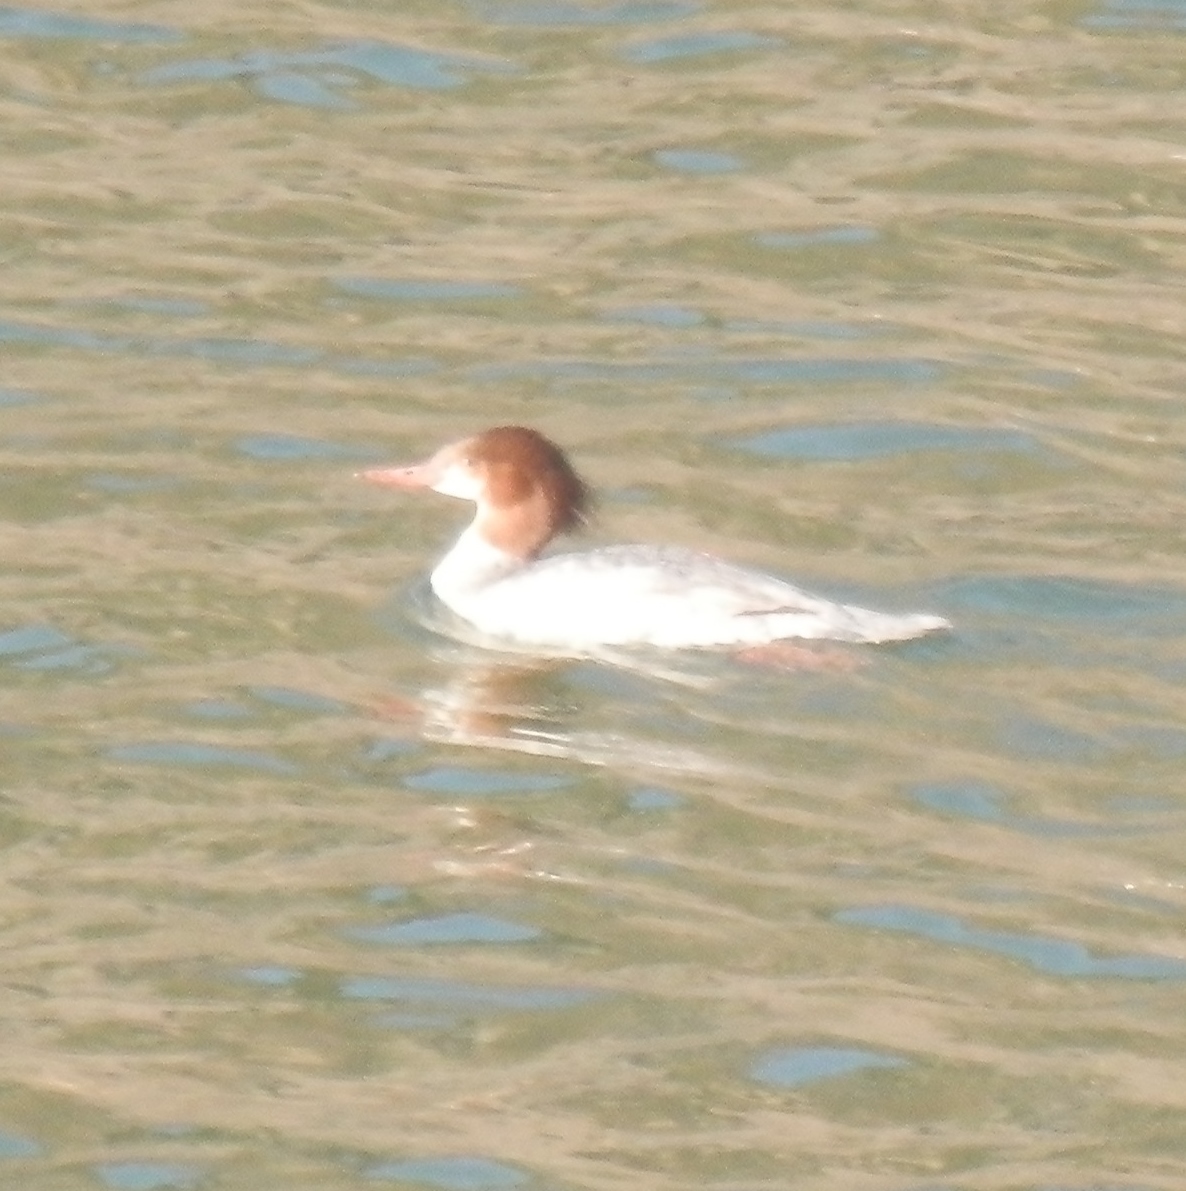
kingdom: Animalia
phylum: Chordata
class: Aves
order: Anseriformes
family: Anatidae
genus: Mergus
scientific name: Mergus merganser
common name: Common merganser
